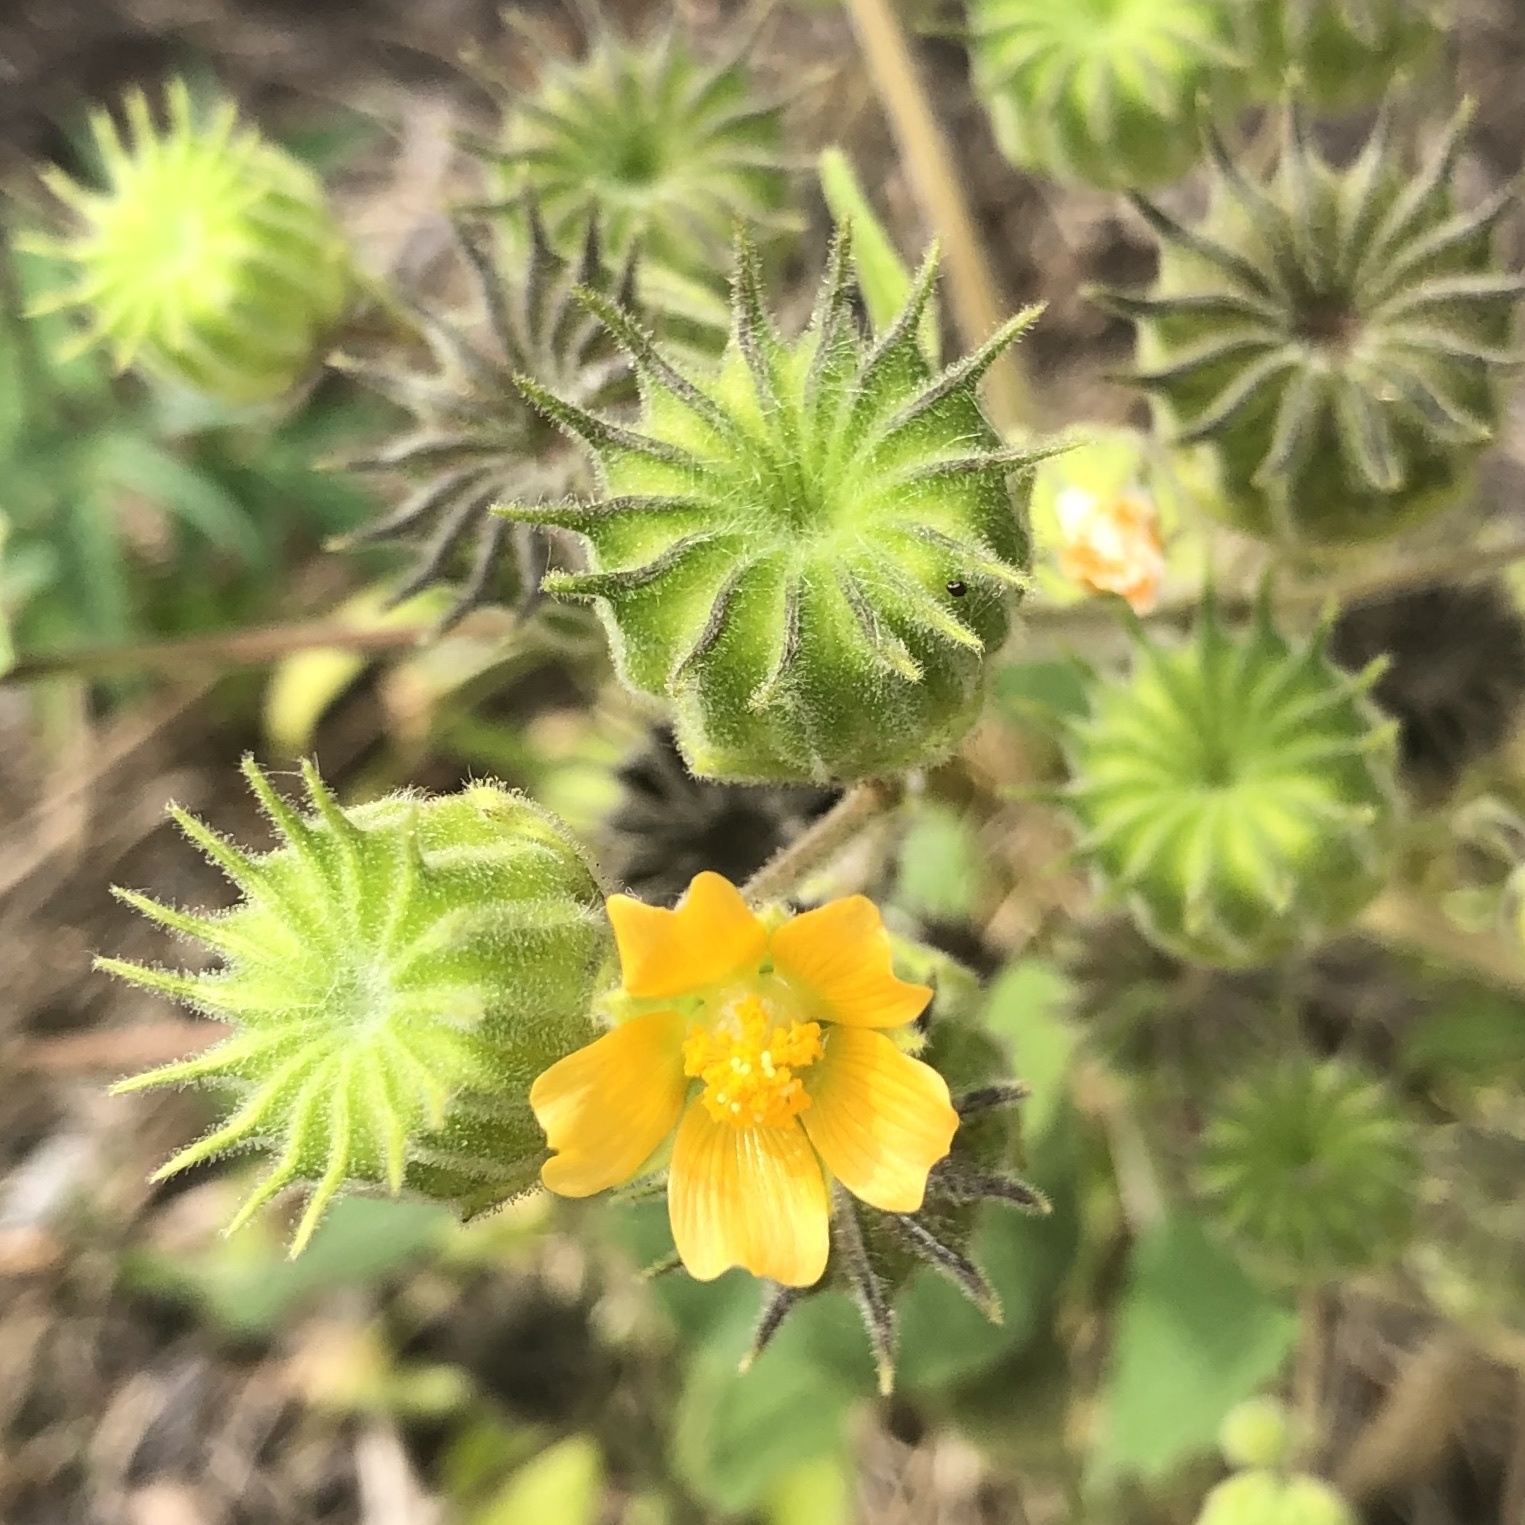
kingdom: Plantae
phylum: Tracheophyta
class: Magnoliopsida
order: Malvales
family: Malvaceae
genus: Abutilon
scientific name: Abutilon theophrasti
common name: Velvetleaf
